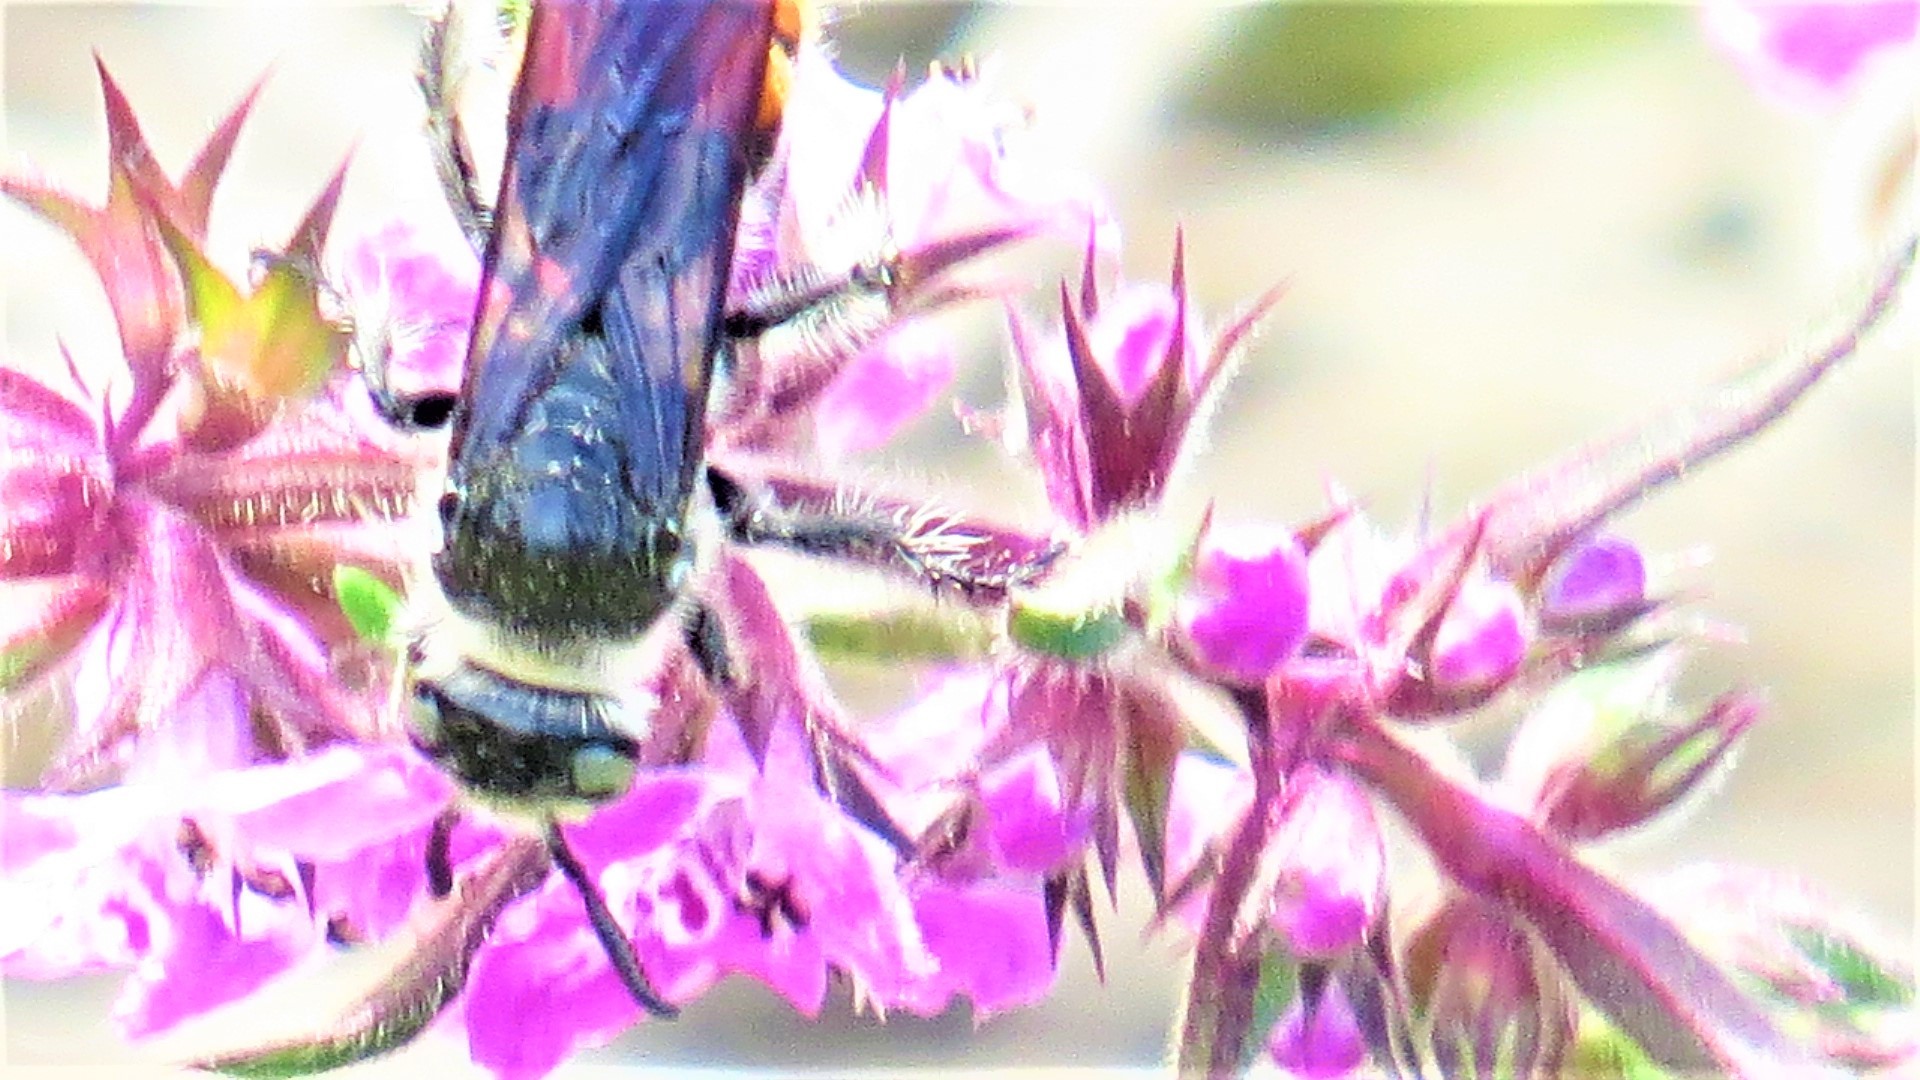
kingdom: Animalia
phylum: Arthropoda
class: Insecta
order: Hymenoptera
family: Scoliidae
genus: Dielis
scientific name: Dielis tolteca
